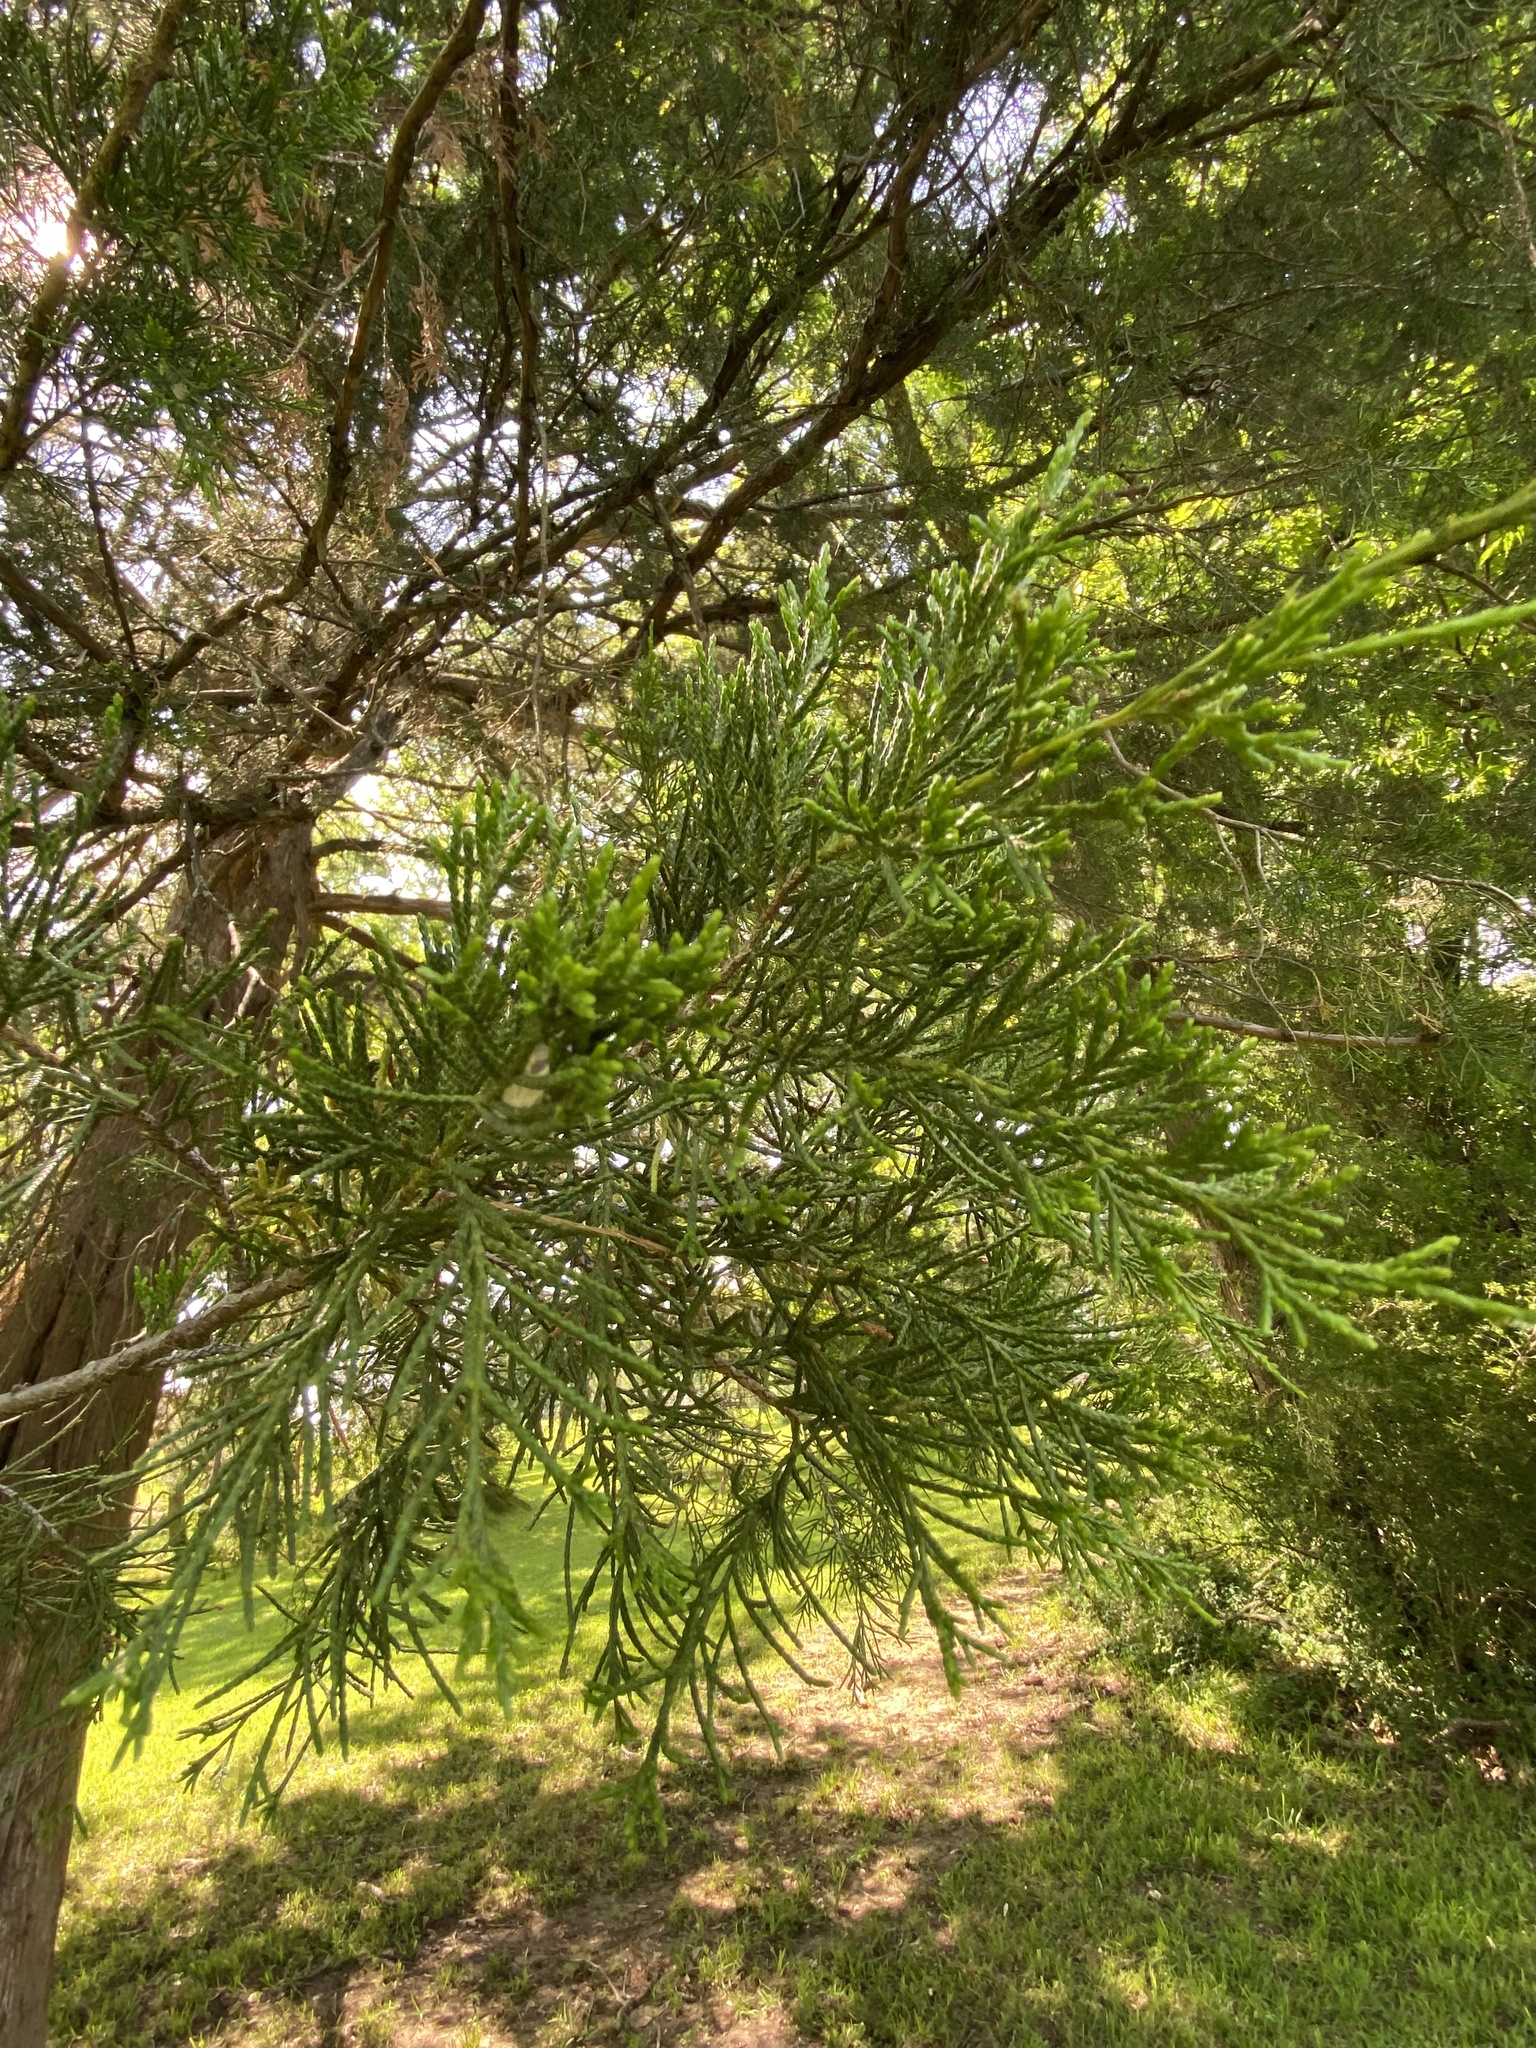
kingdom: Plantae
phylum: Tracheophyta
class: Pinopsida
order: Pinales
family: Cupressaceae
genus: Juniperus
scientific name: Juniperus virginiana
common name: Red juniper
